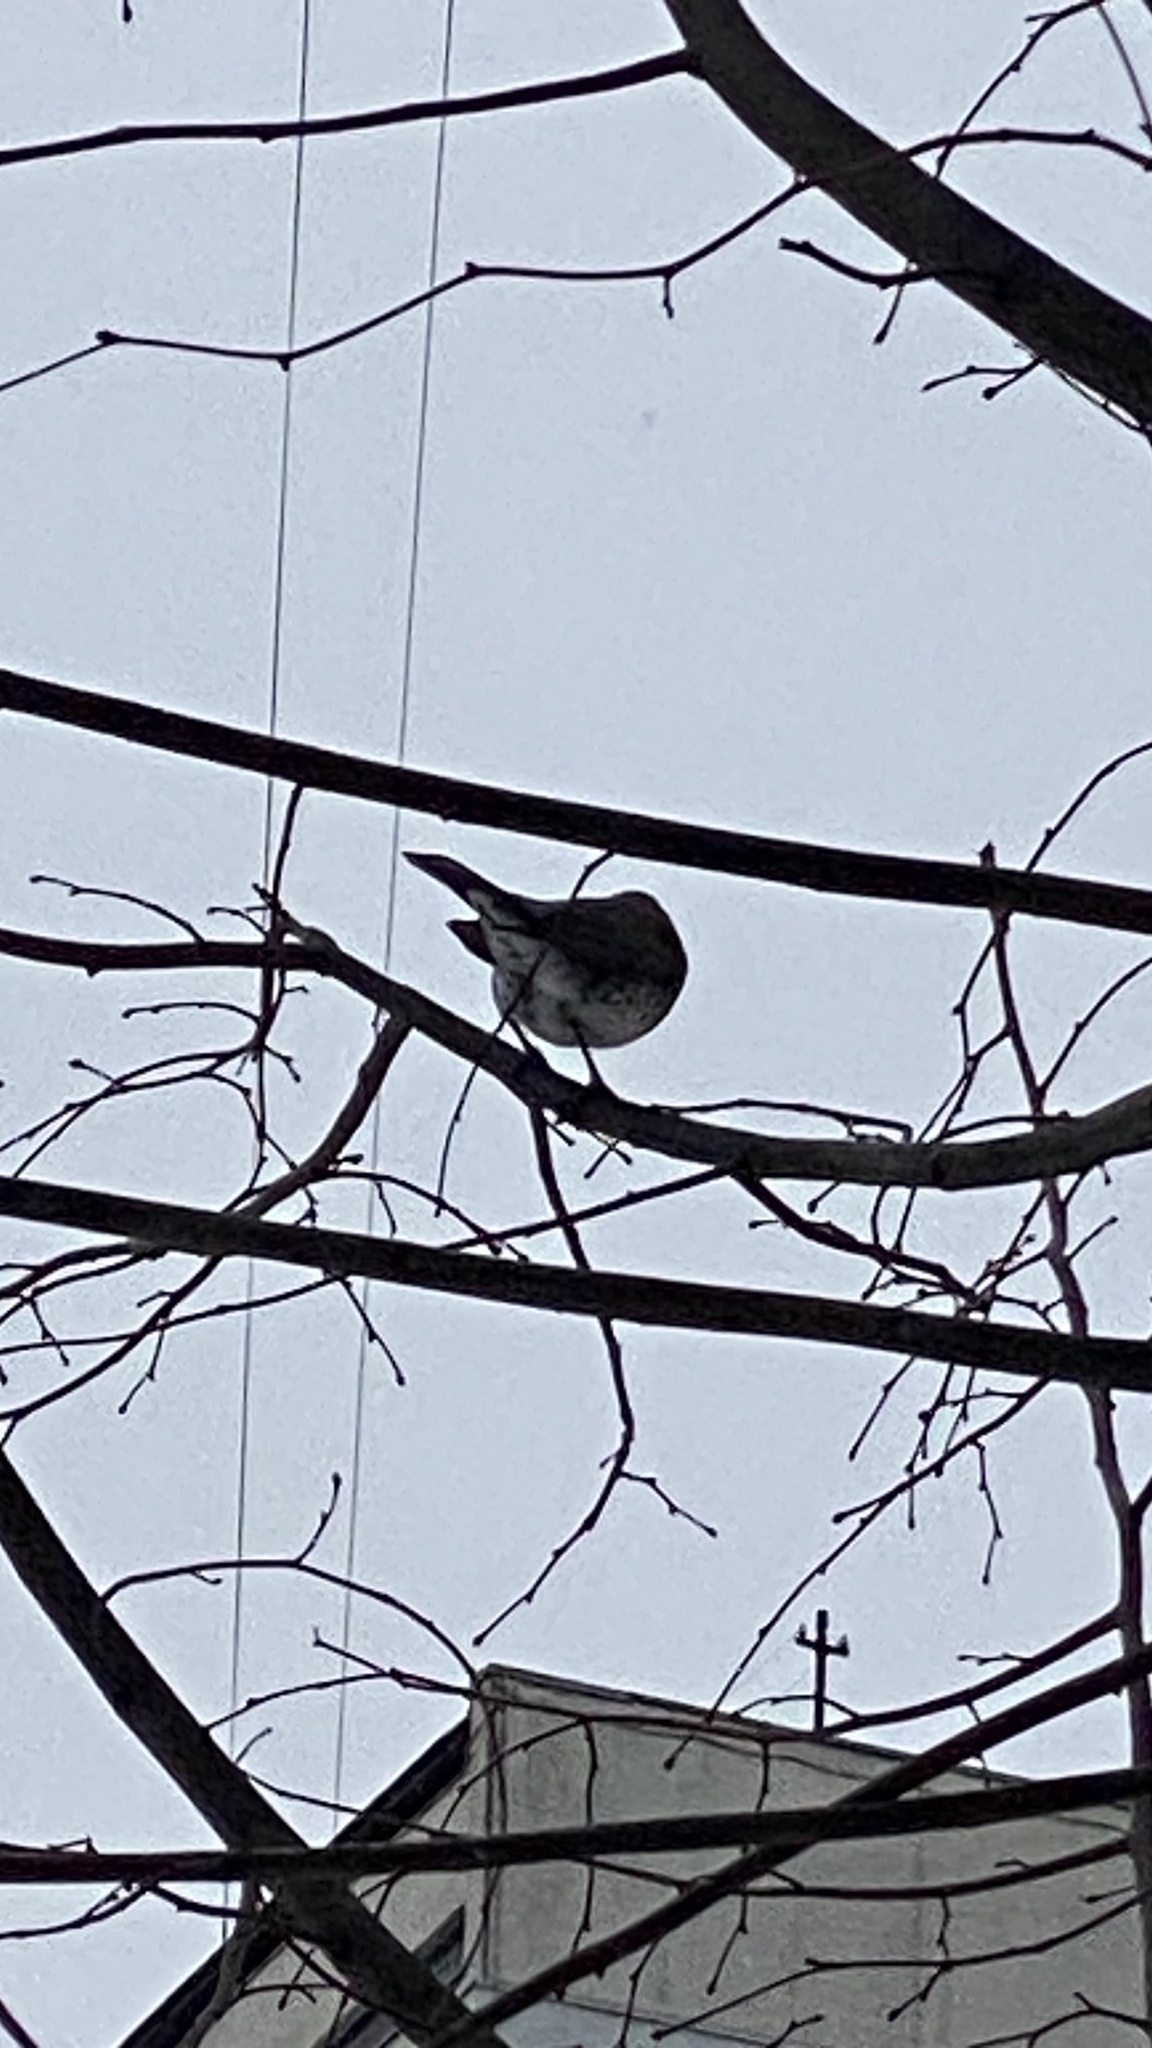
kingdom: Animalia
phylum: Chordata
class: Aves
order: Passeriformes
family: Turdidae
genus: Turdus
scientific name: Turdus pilaris
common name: Fieldfare
